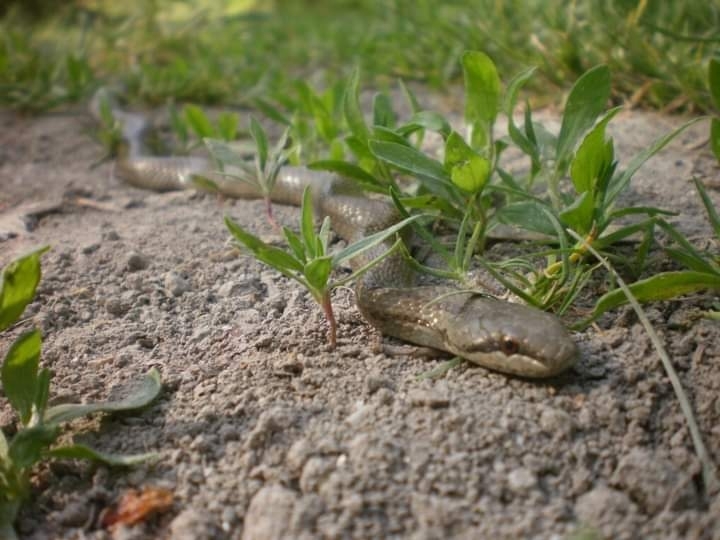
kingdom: Animalia
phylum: Chordata
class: Squamata
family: Colubridae
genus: Coronella
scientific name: Coronella austriaca
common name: Smooth snake
